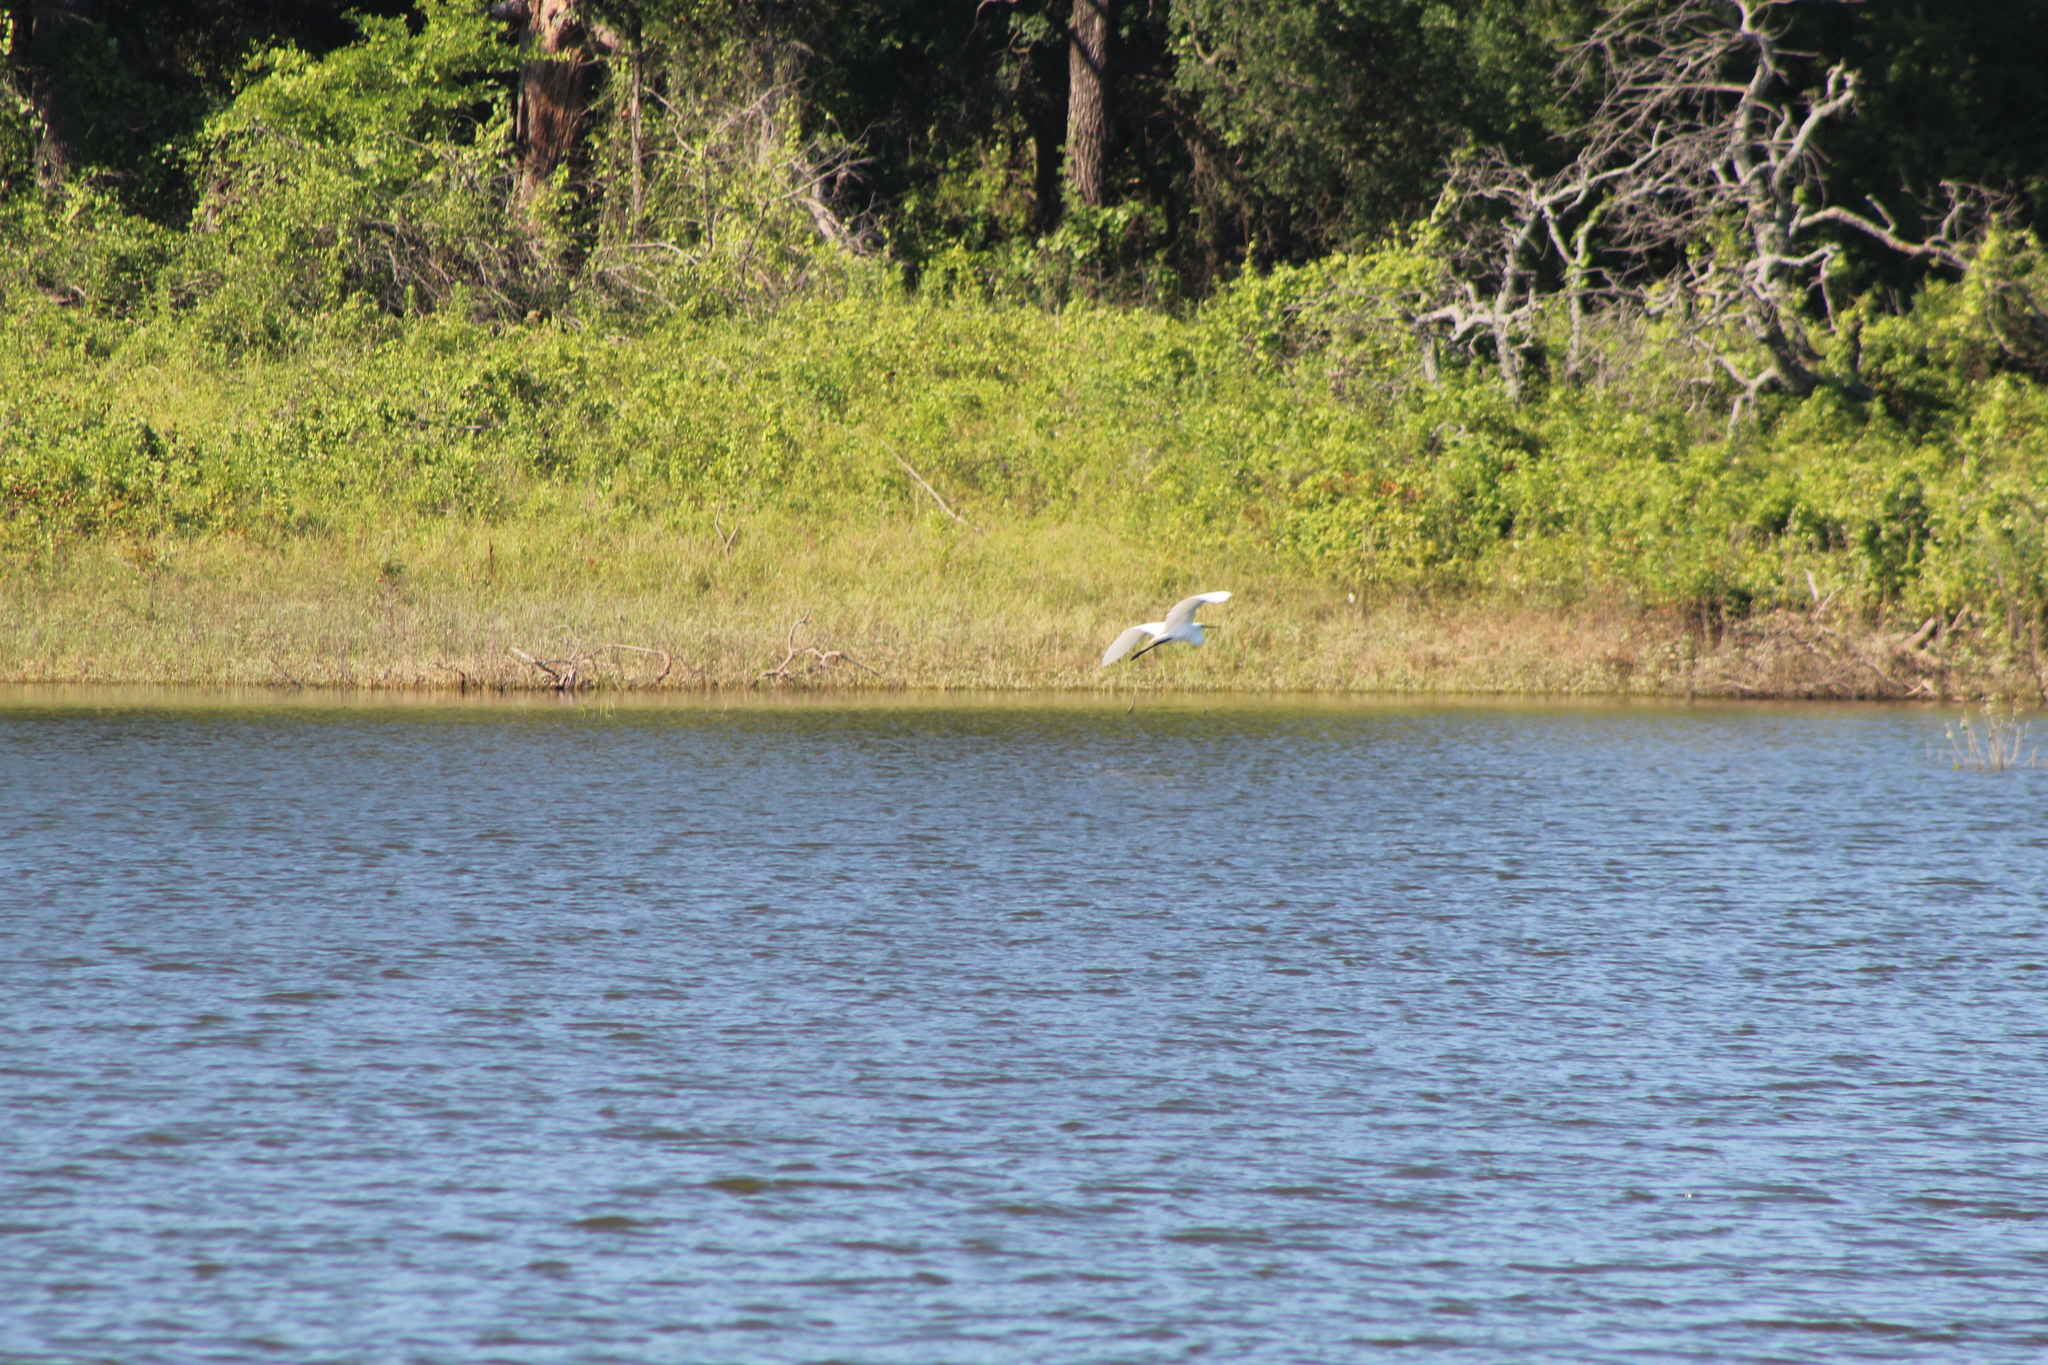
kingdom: Animalia
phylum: Chordata
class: Aves
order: Pelecaniformes
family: Ardeidae
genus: Ardea
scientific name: Ardea alba
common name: Great egret
